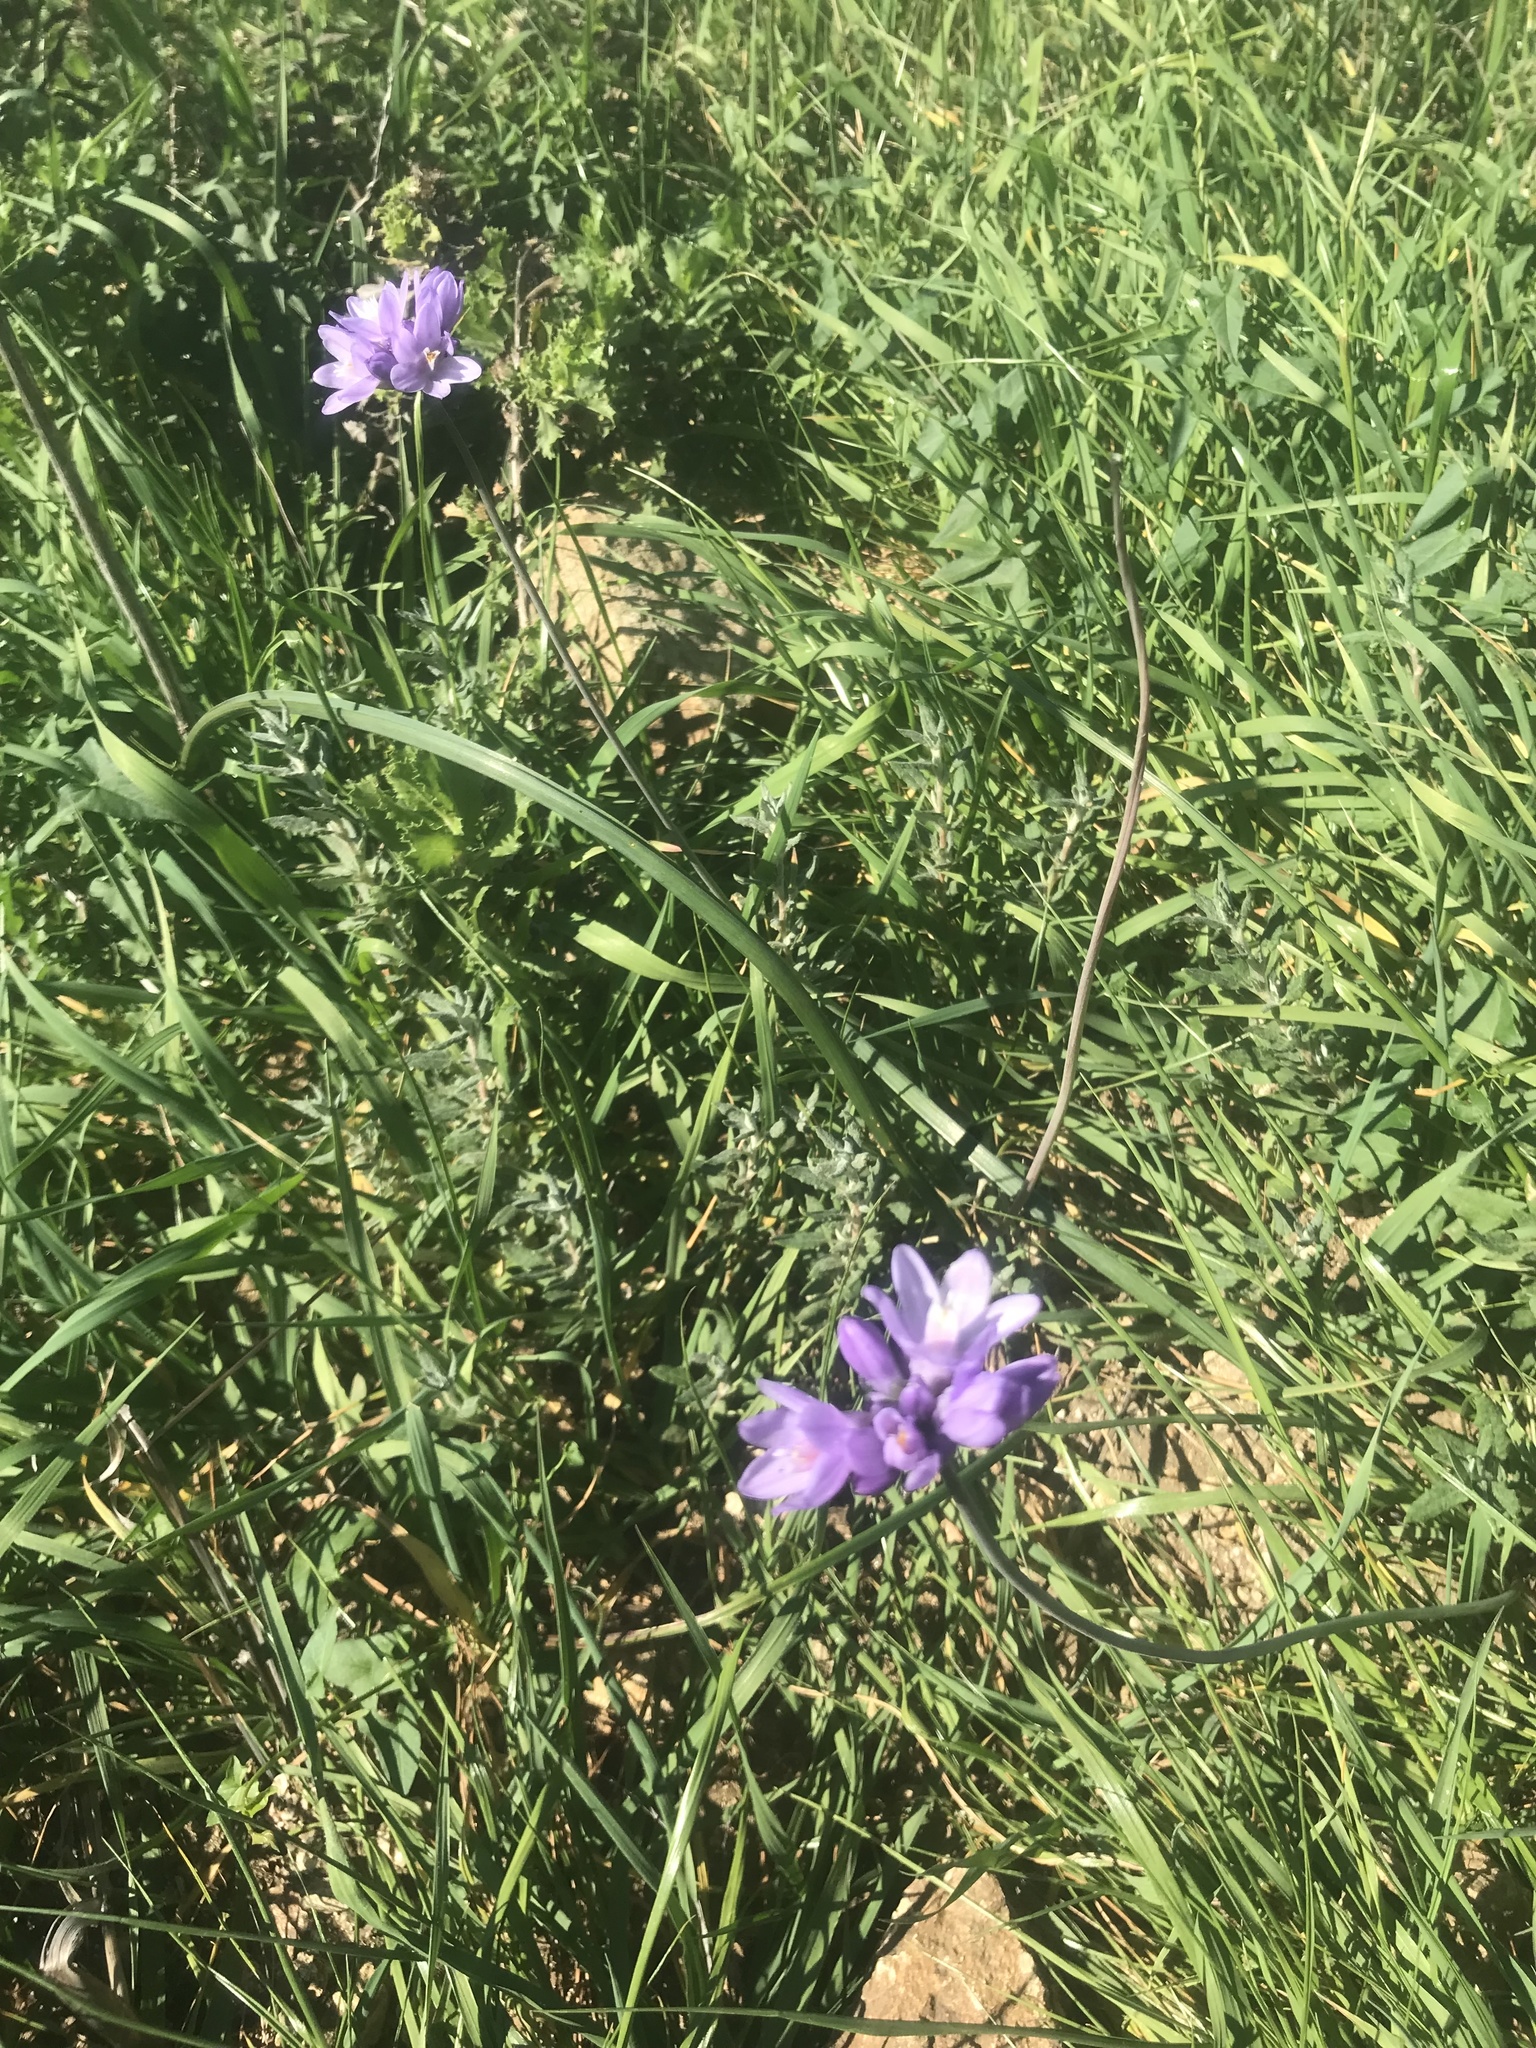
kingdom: Plantae
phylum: Tracheophyta
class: Liliopsida
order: Asparagales
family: Asparagaceae
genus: Dipterostemon
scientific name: Dipterostemon capitatus
